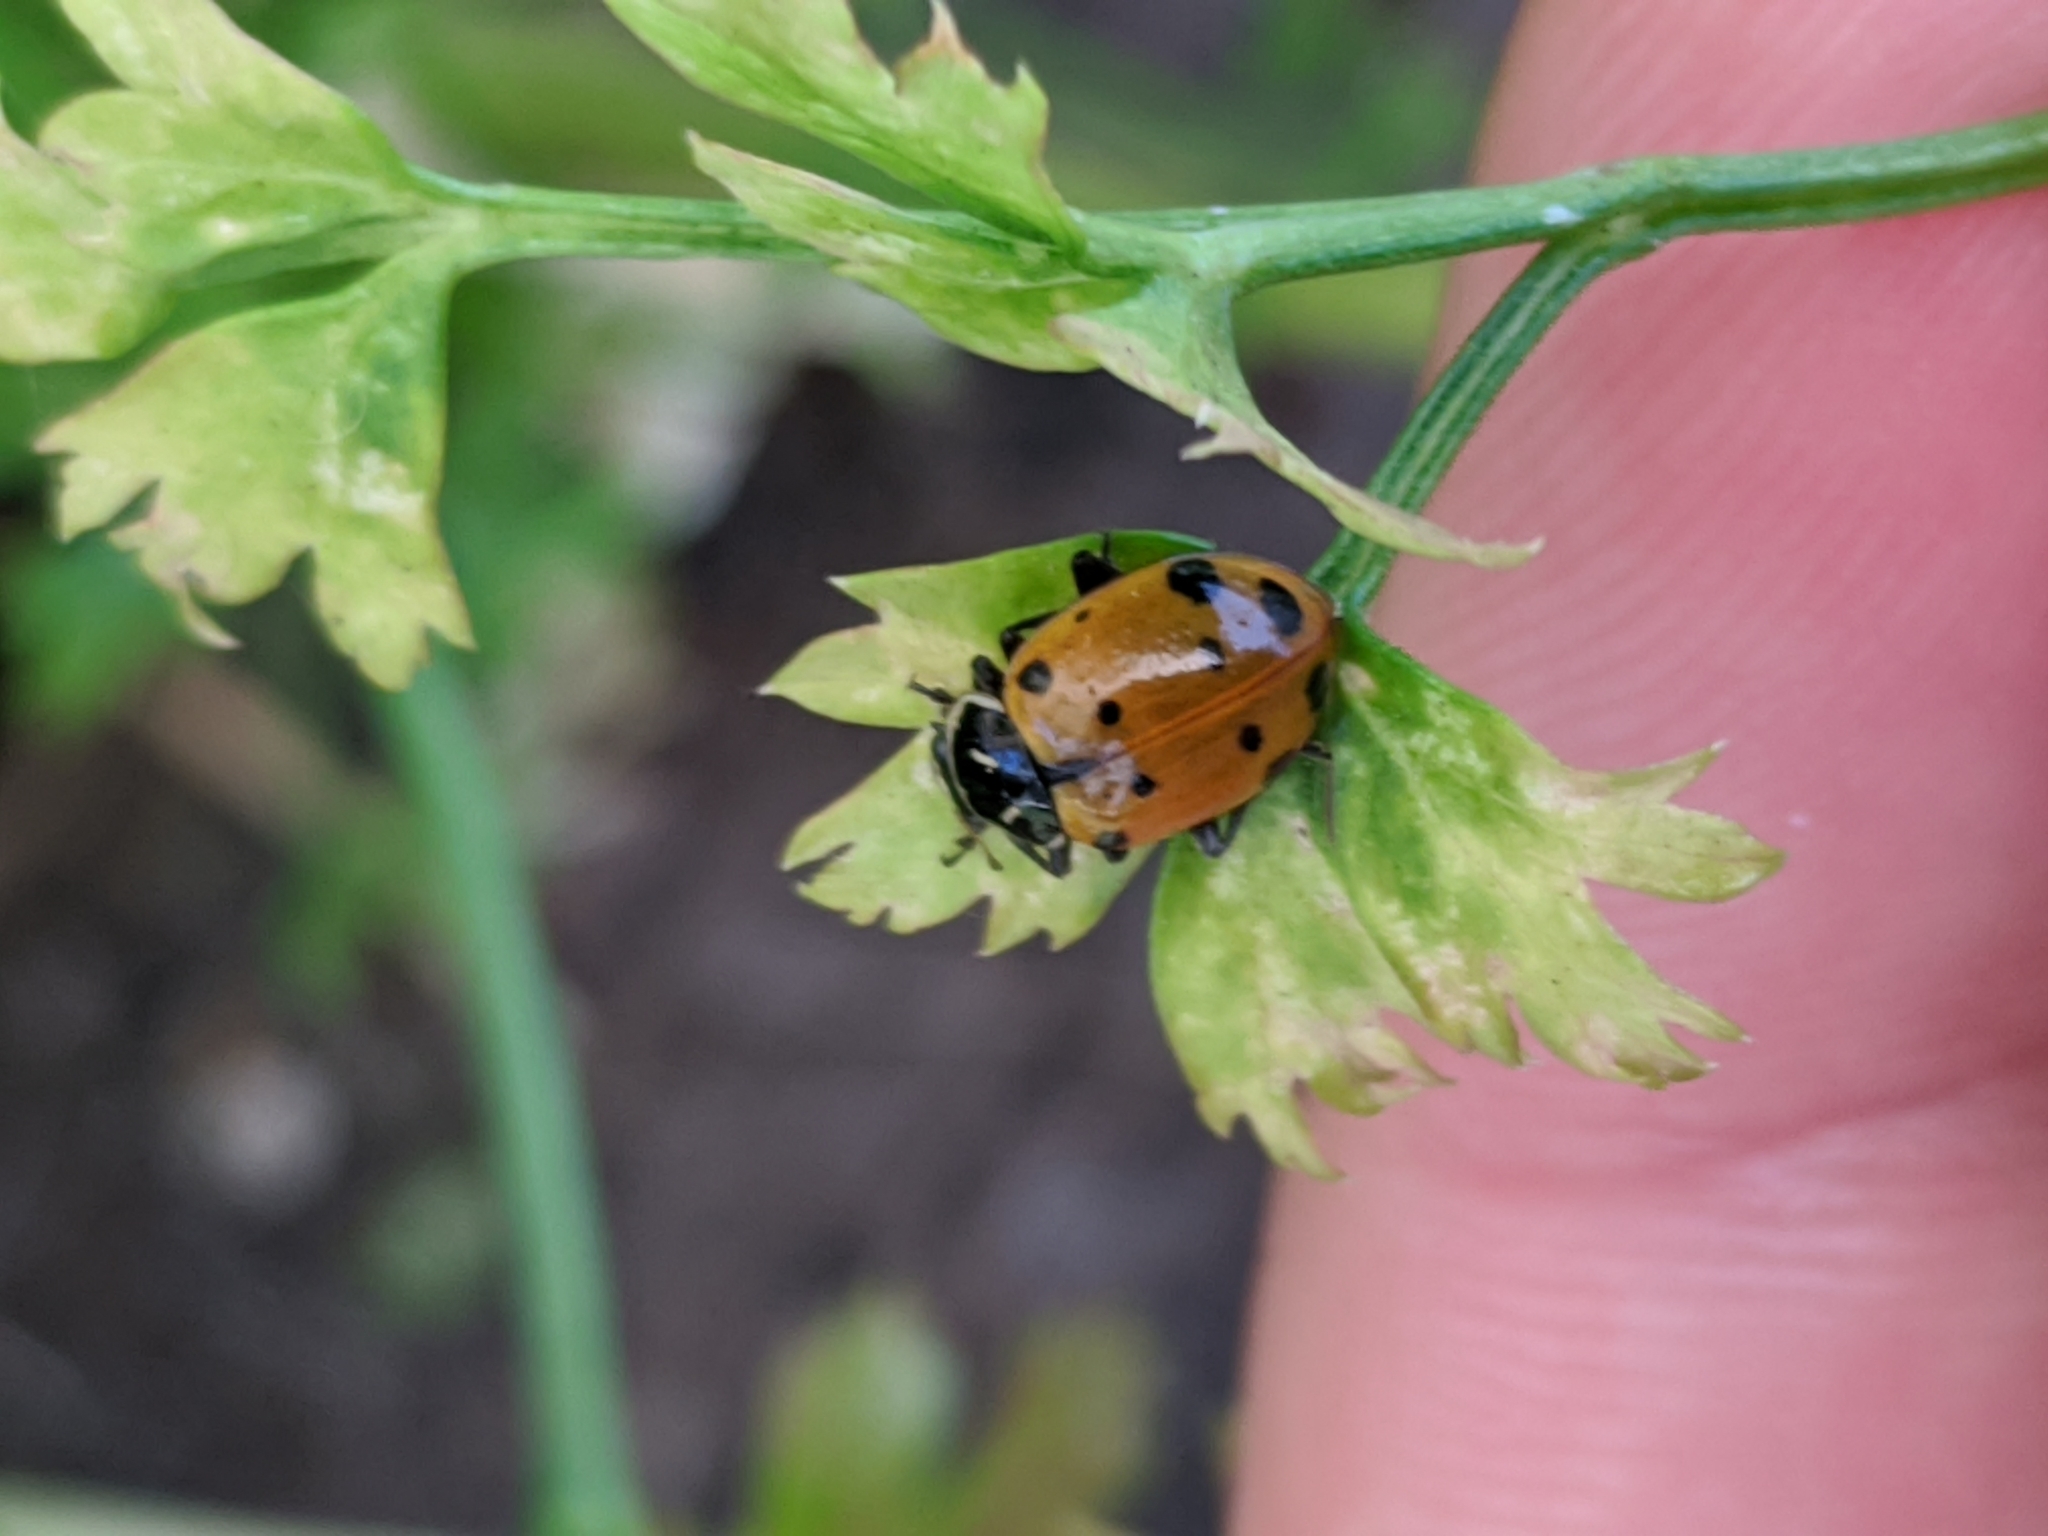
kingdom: Animalia
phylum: Arthropoda
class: Insecta
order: Coleoptera
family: Coccinellidae
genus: Hippodamia
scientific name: Hippodamia convergens
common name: Convergent lady beetle
